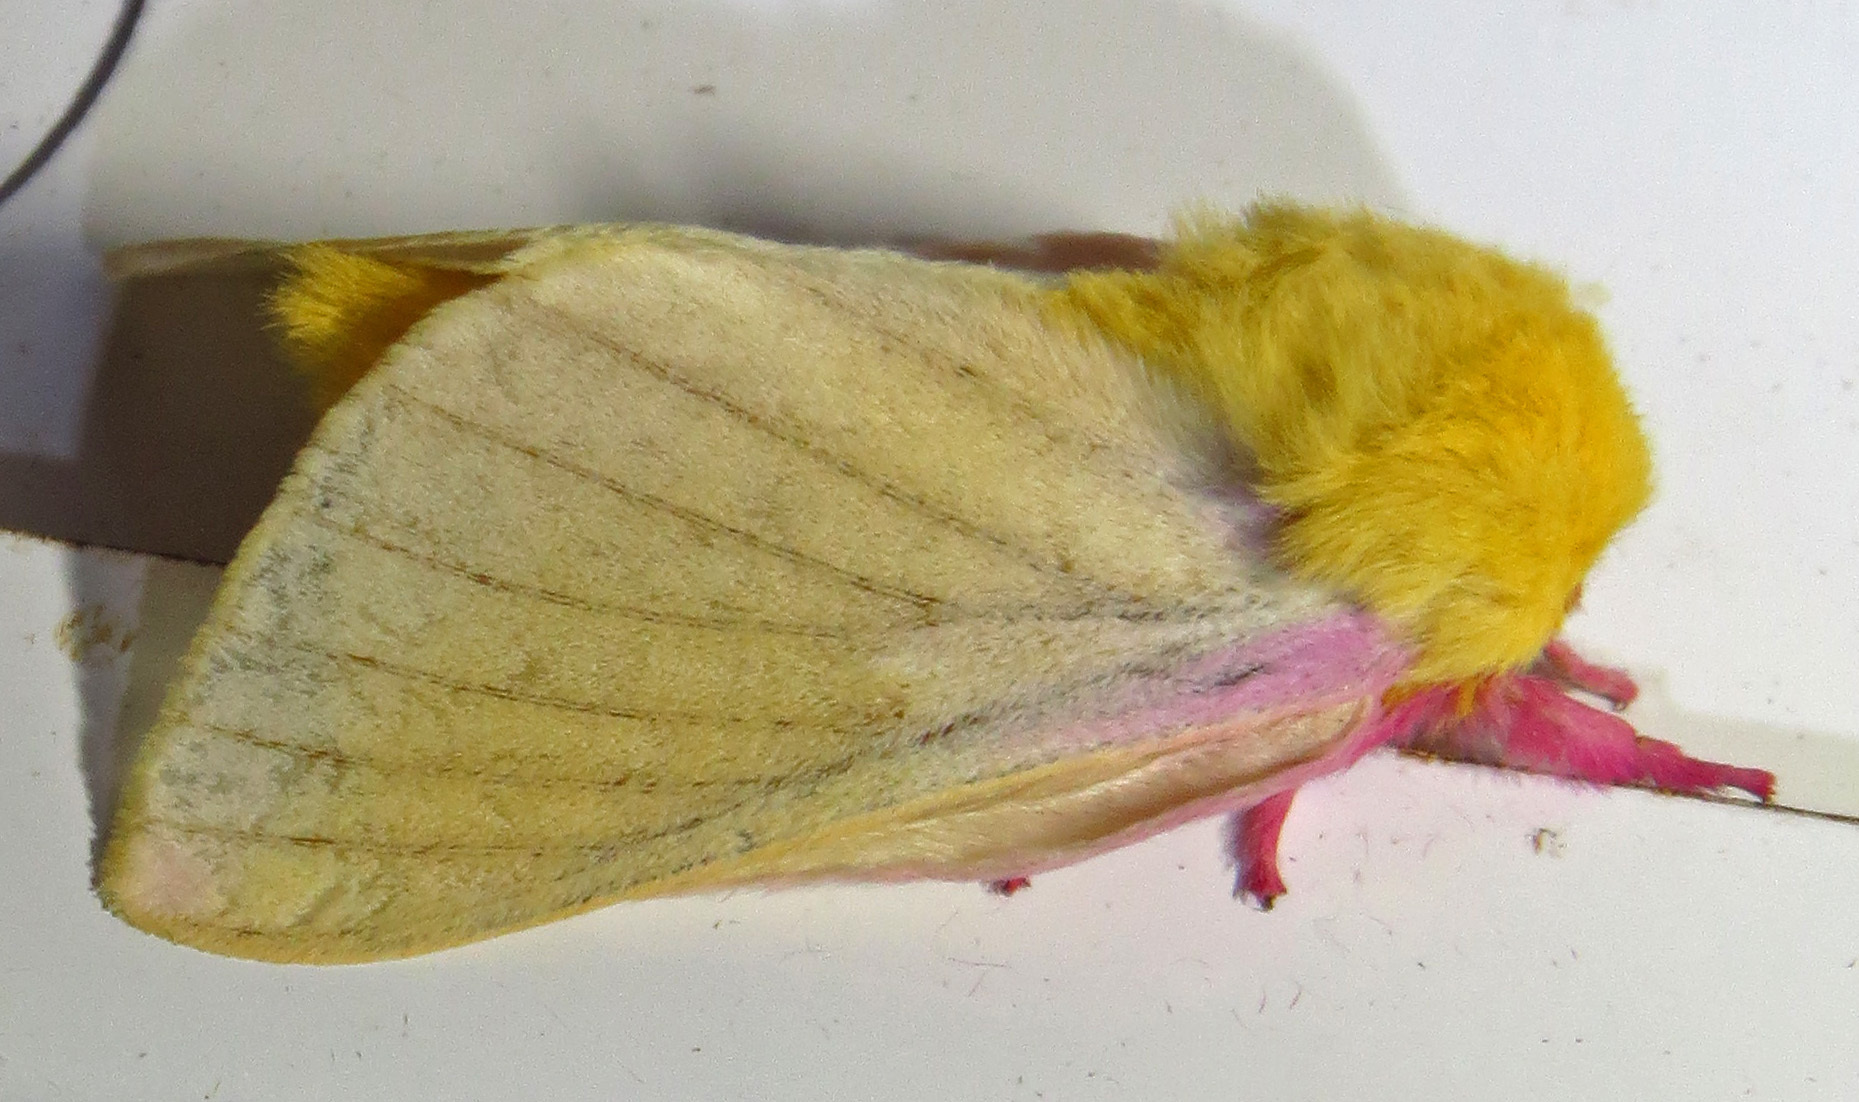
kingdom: Animalia
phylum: Arthropoda
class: Insecta
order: Lepidoptera
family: Saturniidae
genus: Dryocampa
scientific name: Dryocampa rubicunda
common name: Rosy maple moth
